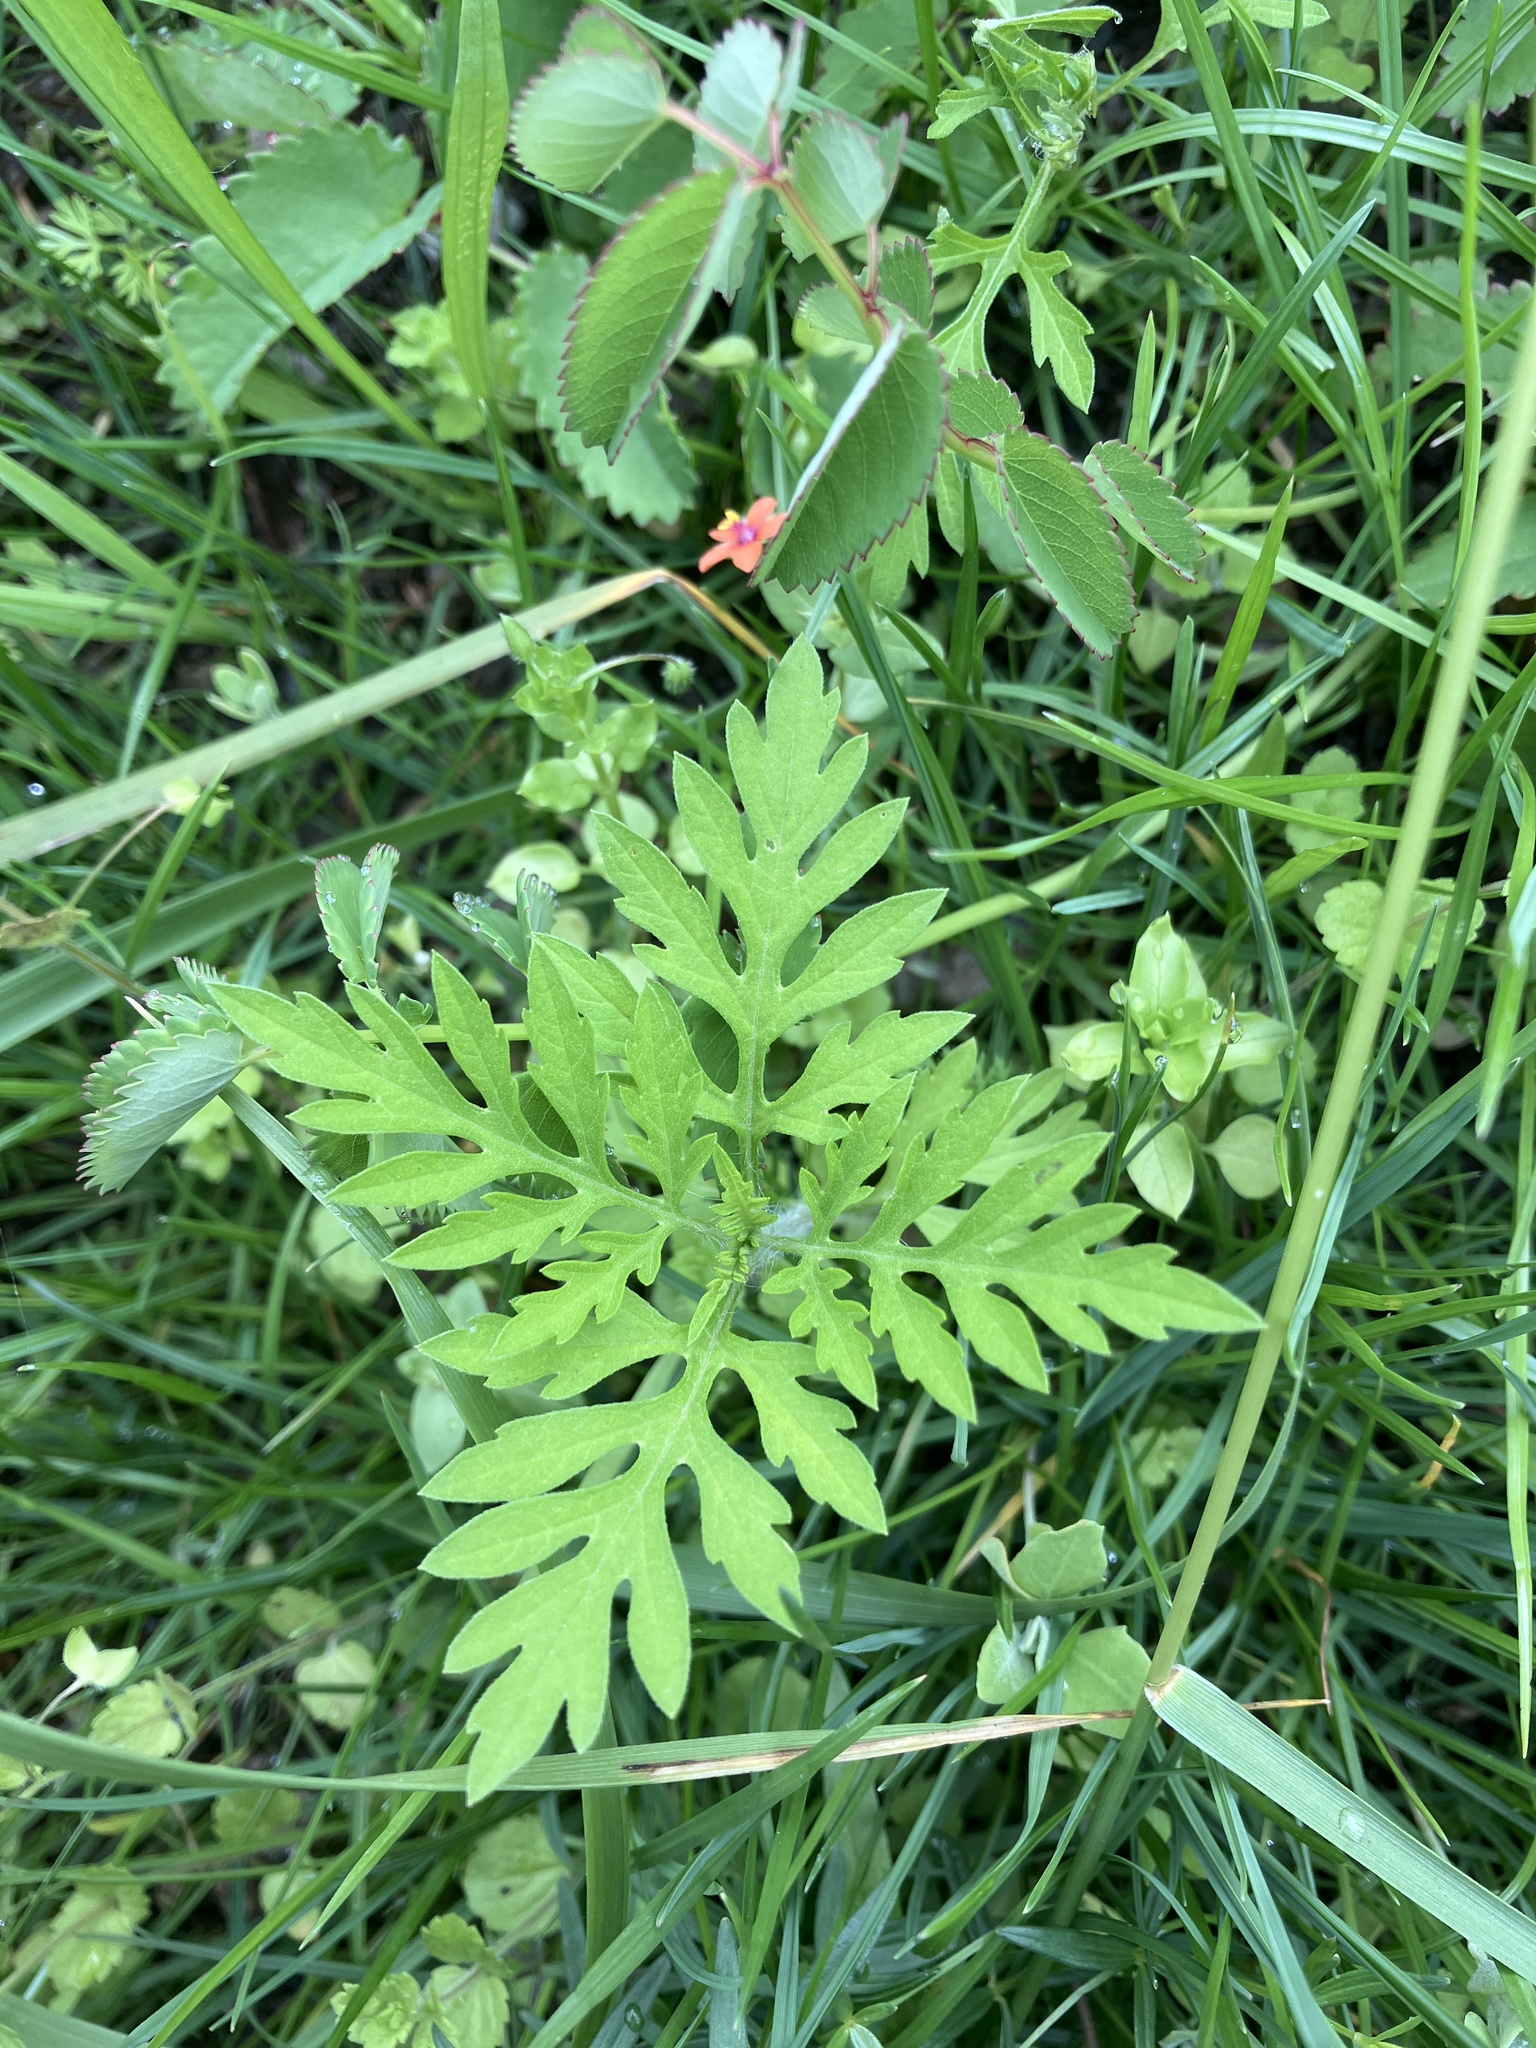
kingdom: Plantae
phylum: Tracheophyta
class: Magnoliopsida
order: Asterales
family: Asteraceae
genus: Ambrosia
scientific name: Ambrosia artemisiifolia
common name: Annual ragweed
